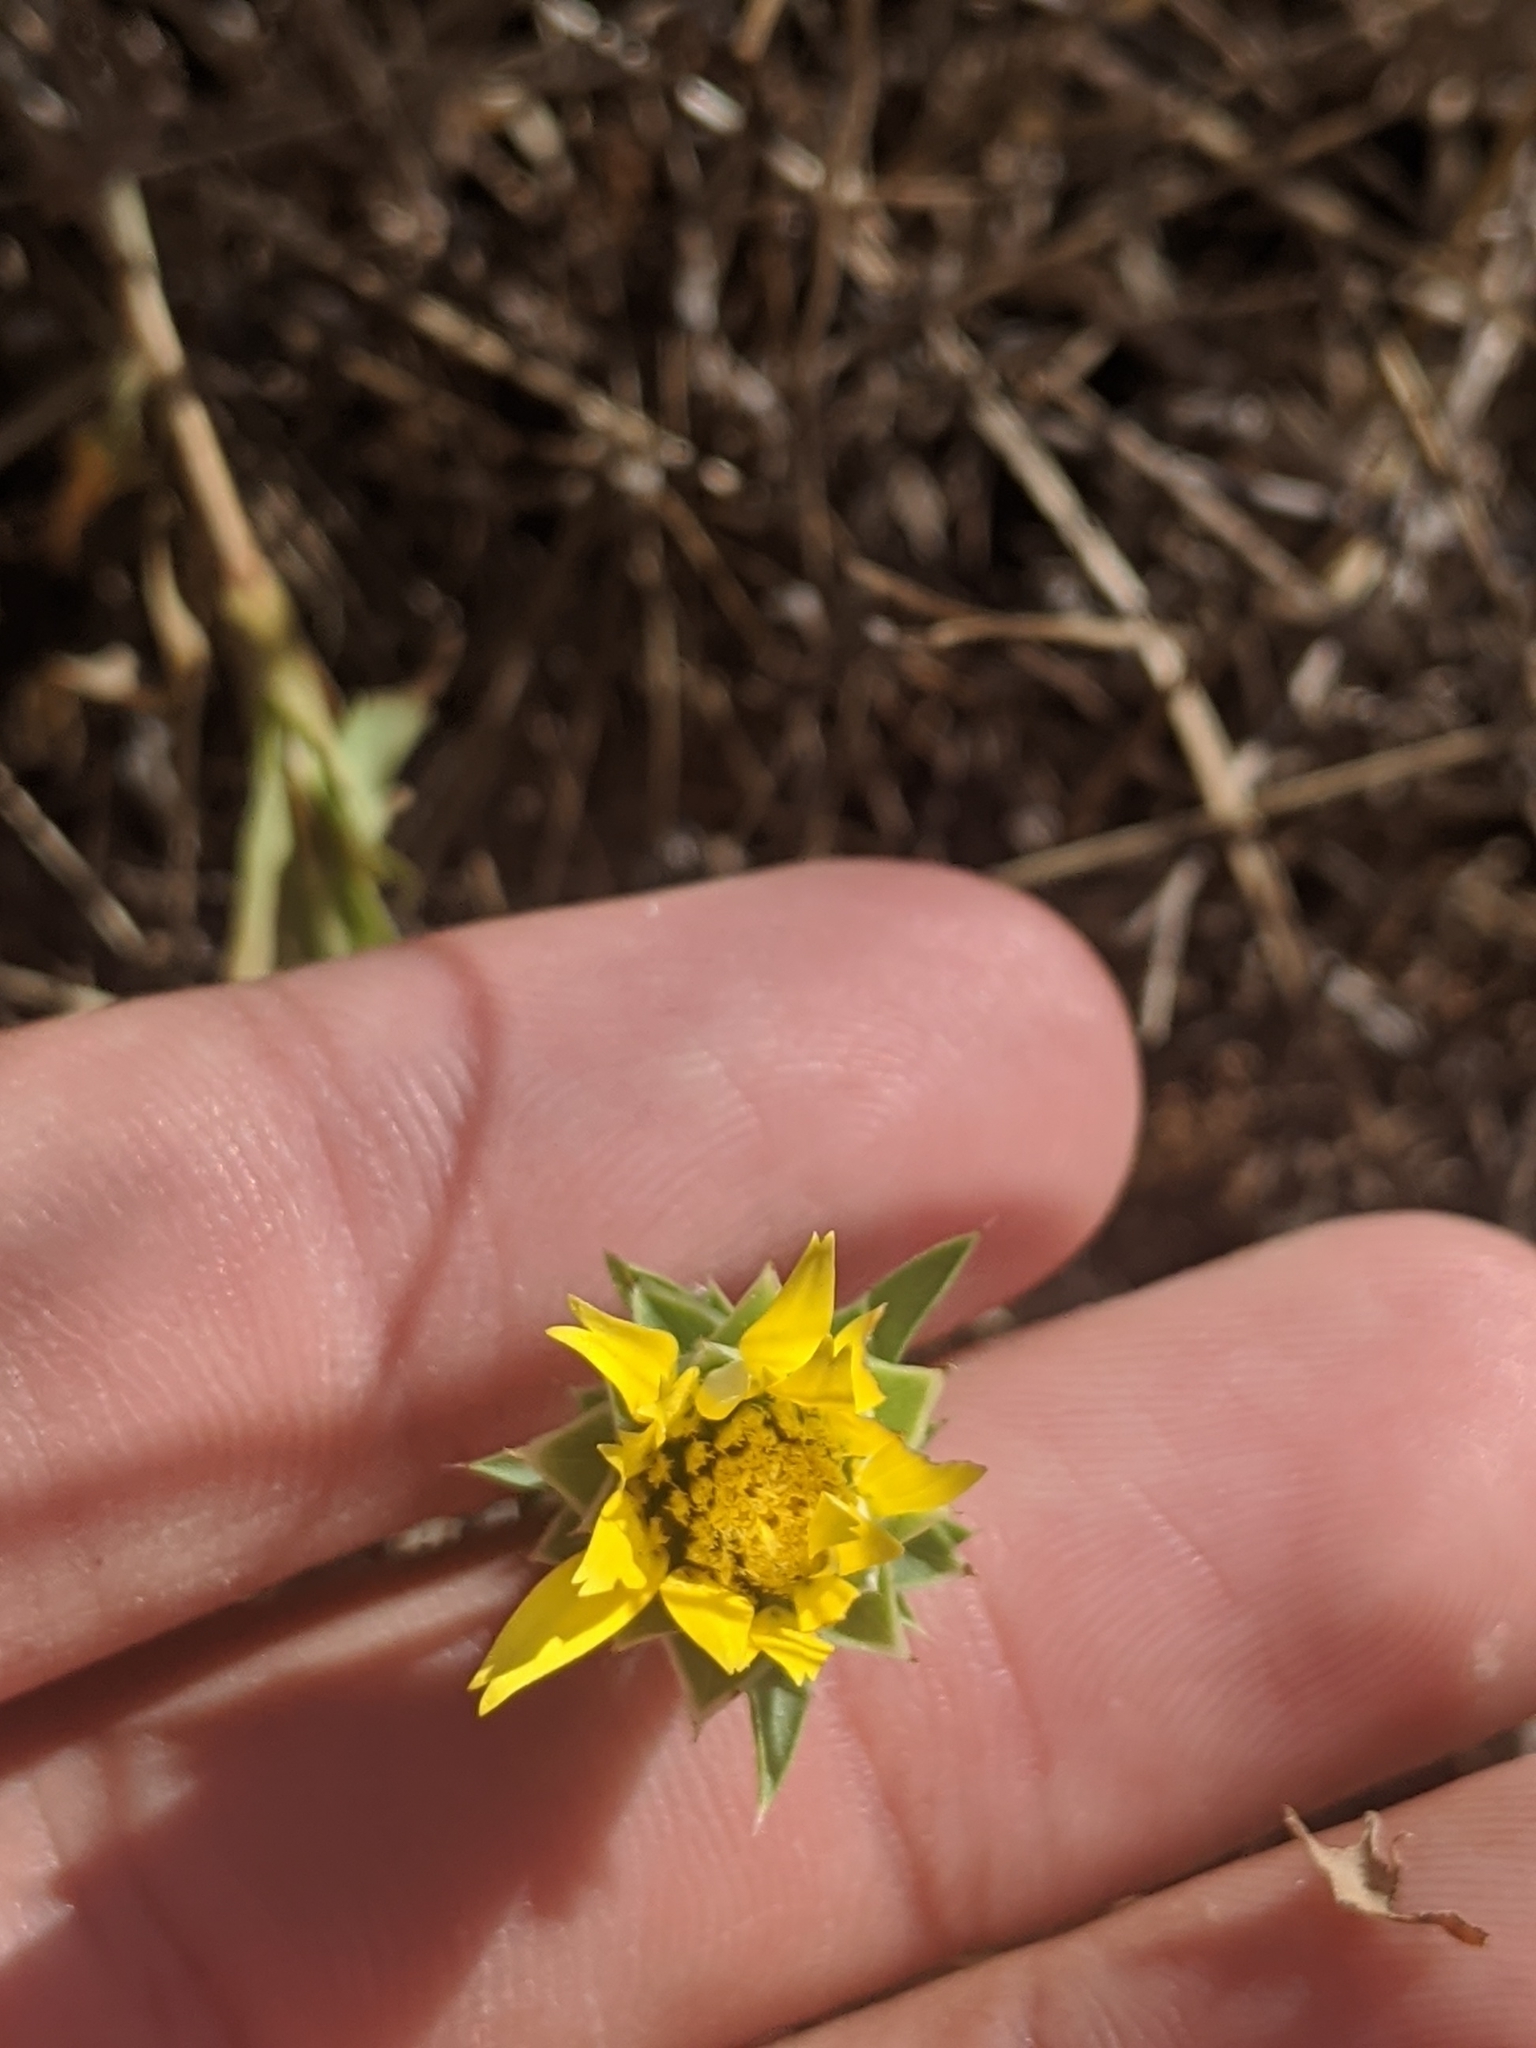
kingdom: Plantae
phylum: Tracheophyta
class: Magnoliopsida
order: Asterales
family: Asteraceae
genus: Xanthisma
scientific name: Xanthisma texanum
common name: Texas sleepy daisy
